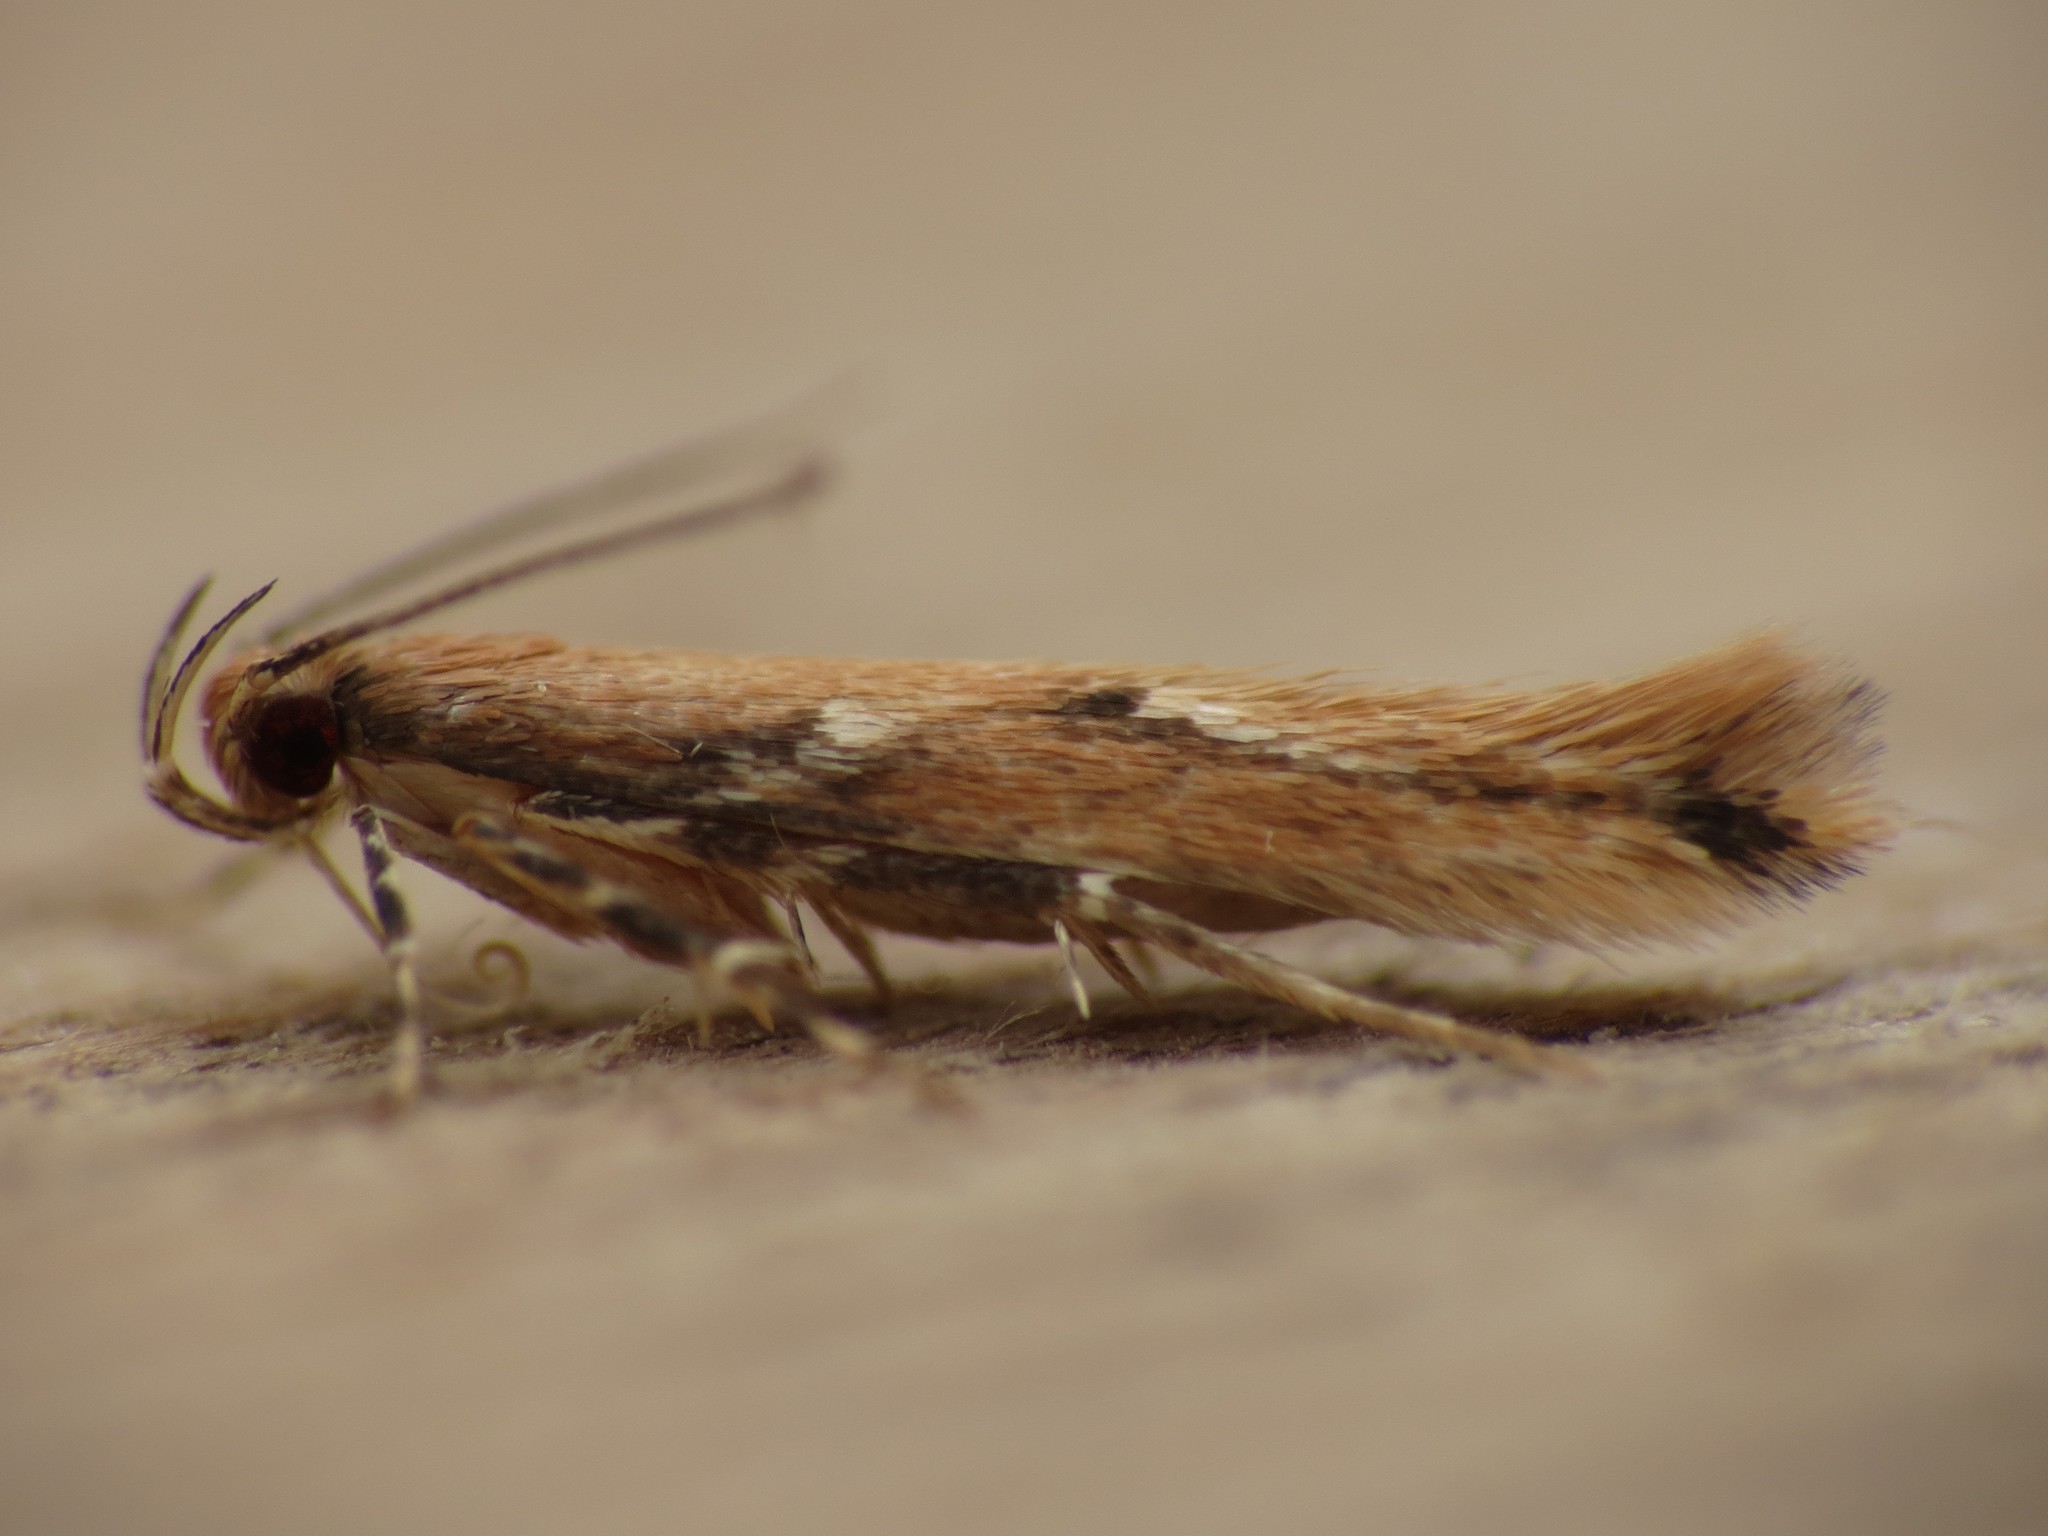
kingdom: Animalia
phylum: Arthropoda
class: Insecta
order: Lepidoptera
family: Cosmopterigidae
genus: Pyroderces
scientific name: Pyroderces wolschrijni
